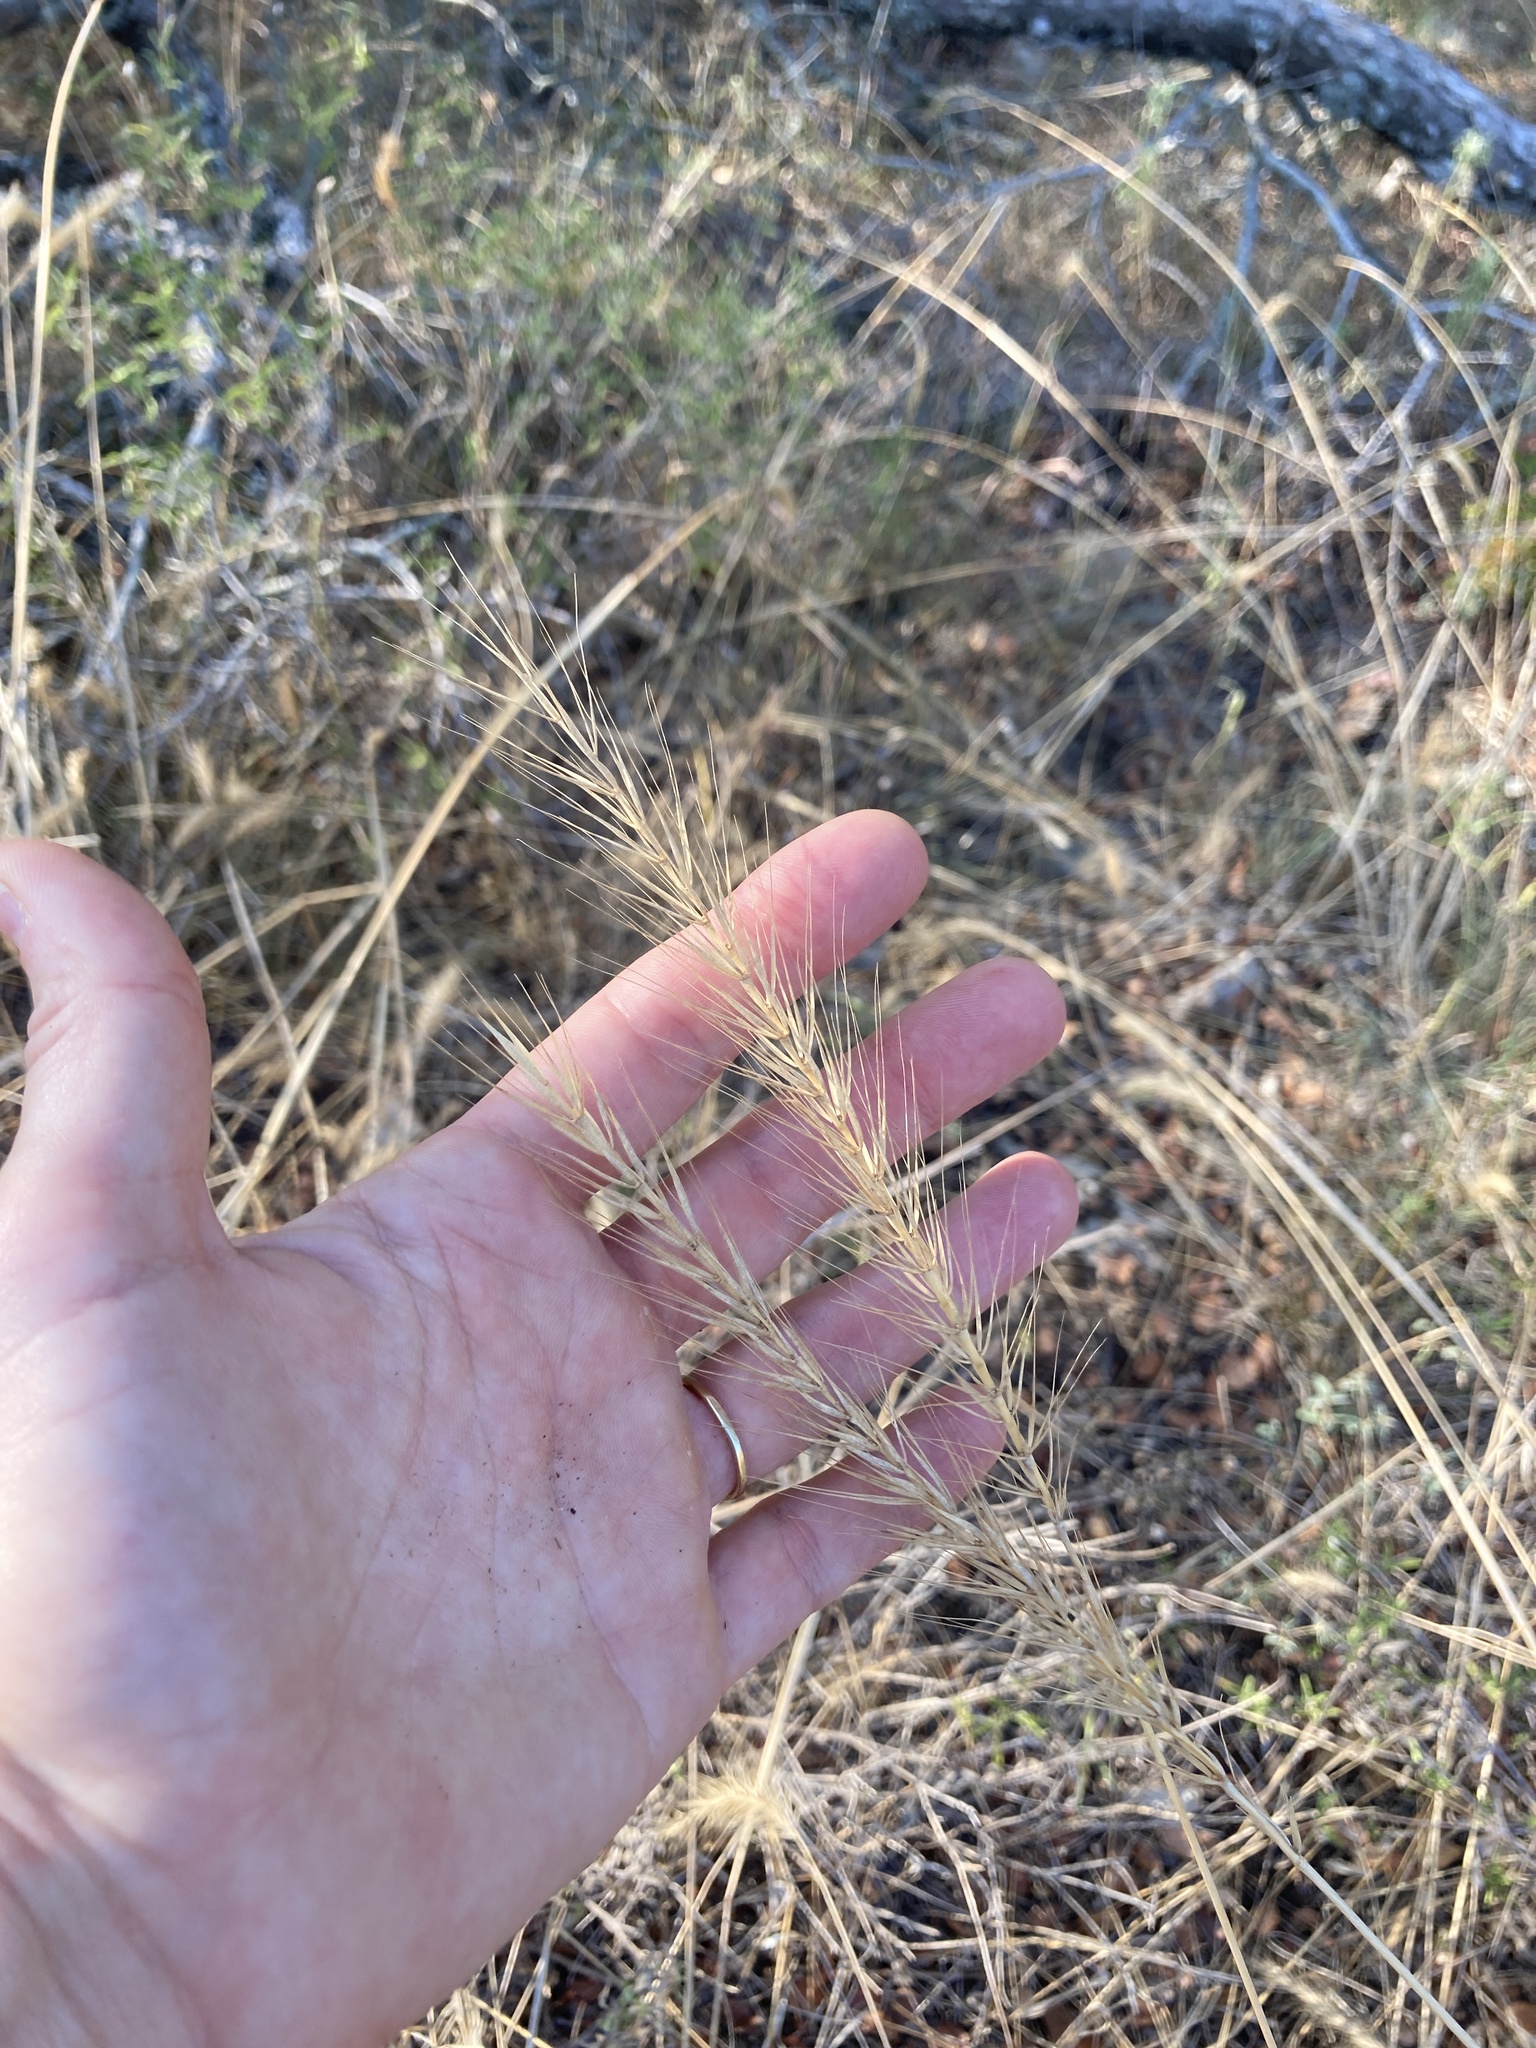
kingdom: Plantae
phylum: Tracheophyta
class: Liliopsida
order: Poales
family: Poaceae
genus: Elymus
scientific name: Elymus canadensis
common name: Canada wild rye
